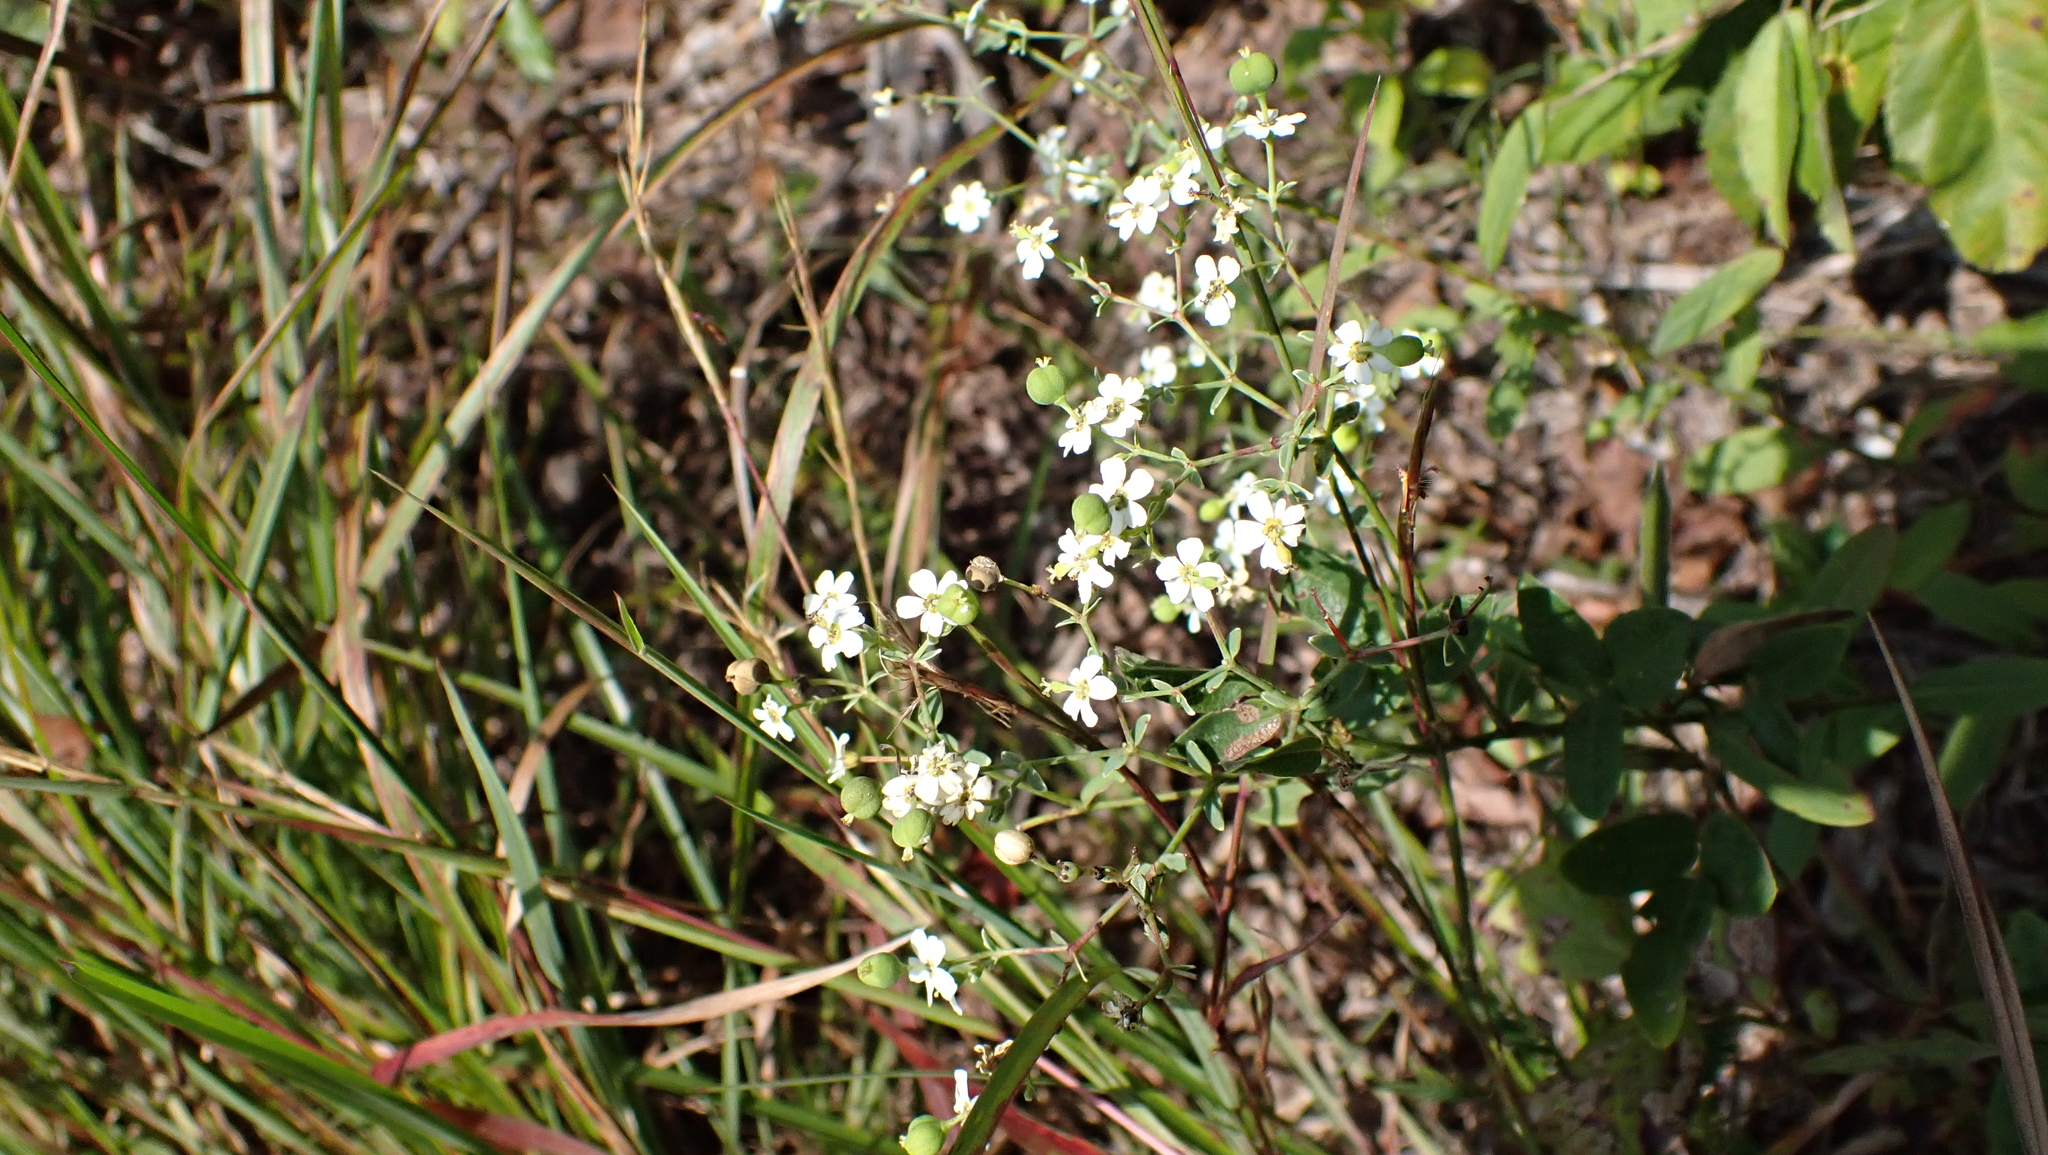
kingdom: Plantae
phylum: Tracheophyta
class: Magnoliopsida
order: Malpighiales
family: Euphorbiaceae
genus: Euphorbia
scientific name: Euphorbia corollata
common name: Flowering spurge
